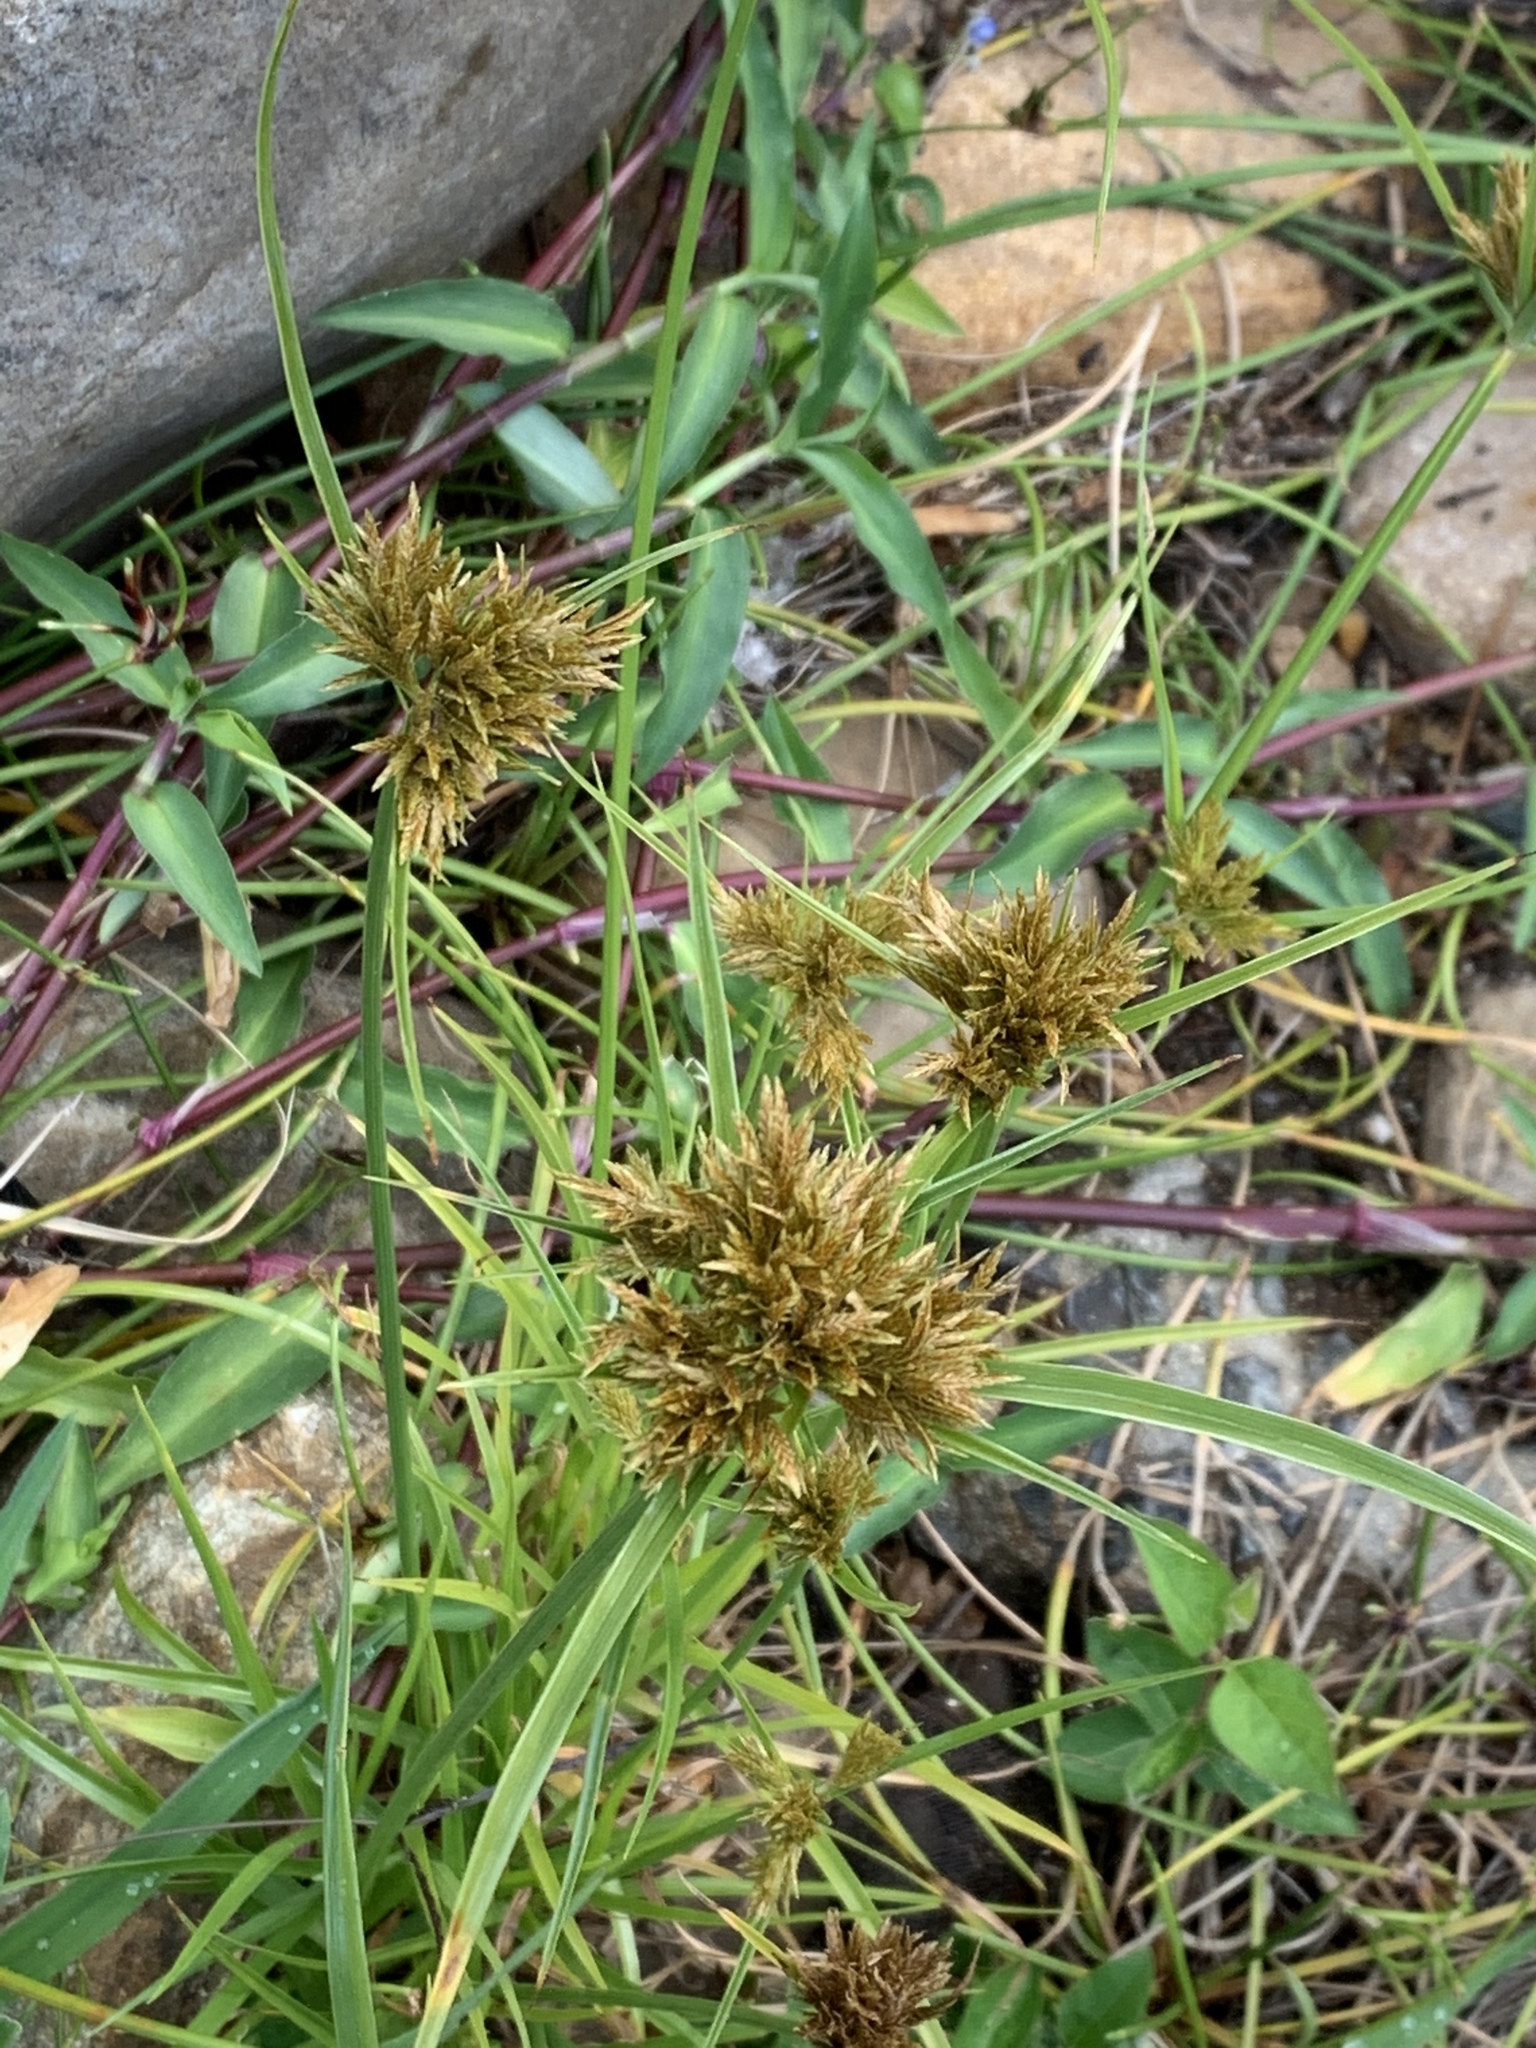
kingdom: Plantae
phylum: Tracheophyta
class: Liliopsida
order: Poales
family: Cyperaceae
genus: Cyperus
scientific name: Cyperus polystachyos
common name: Bunchy flat sedge
